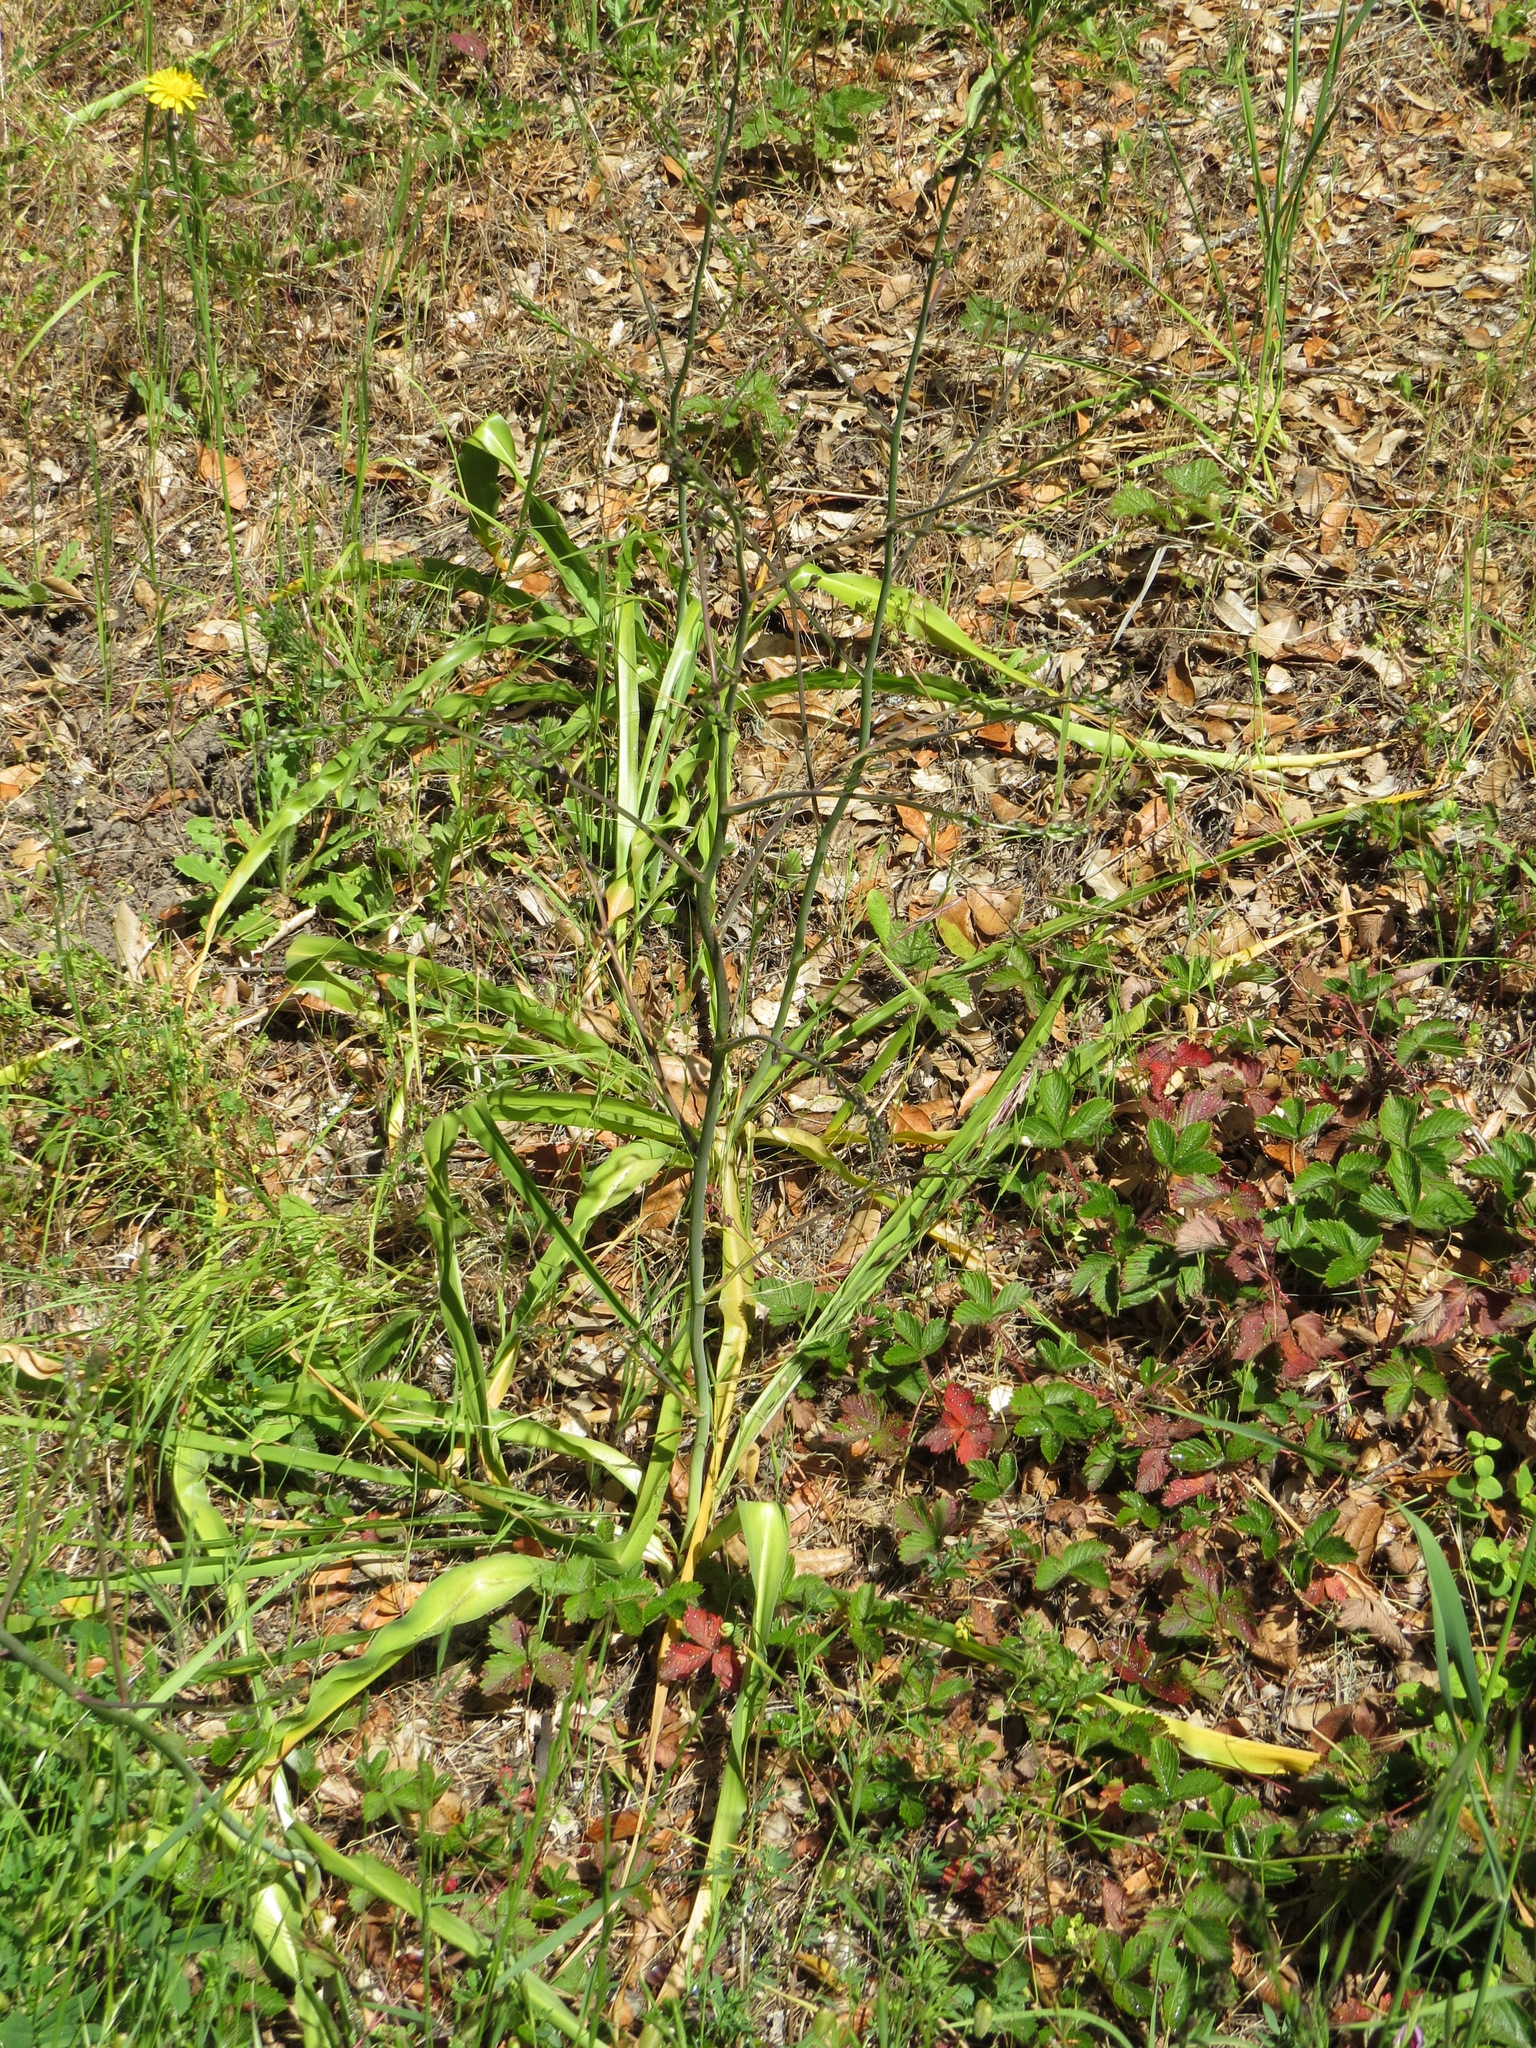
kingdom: Plantae
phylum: Tracheophyta
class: Liliopsida
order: Asparagales
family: Asparagaceae
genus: Chlorogalum
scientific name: Chlorogalum pomeridianum
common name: Amole
